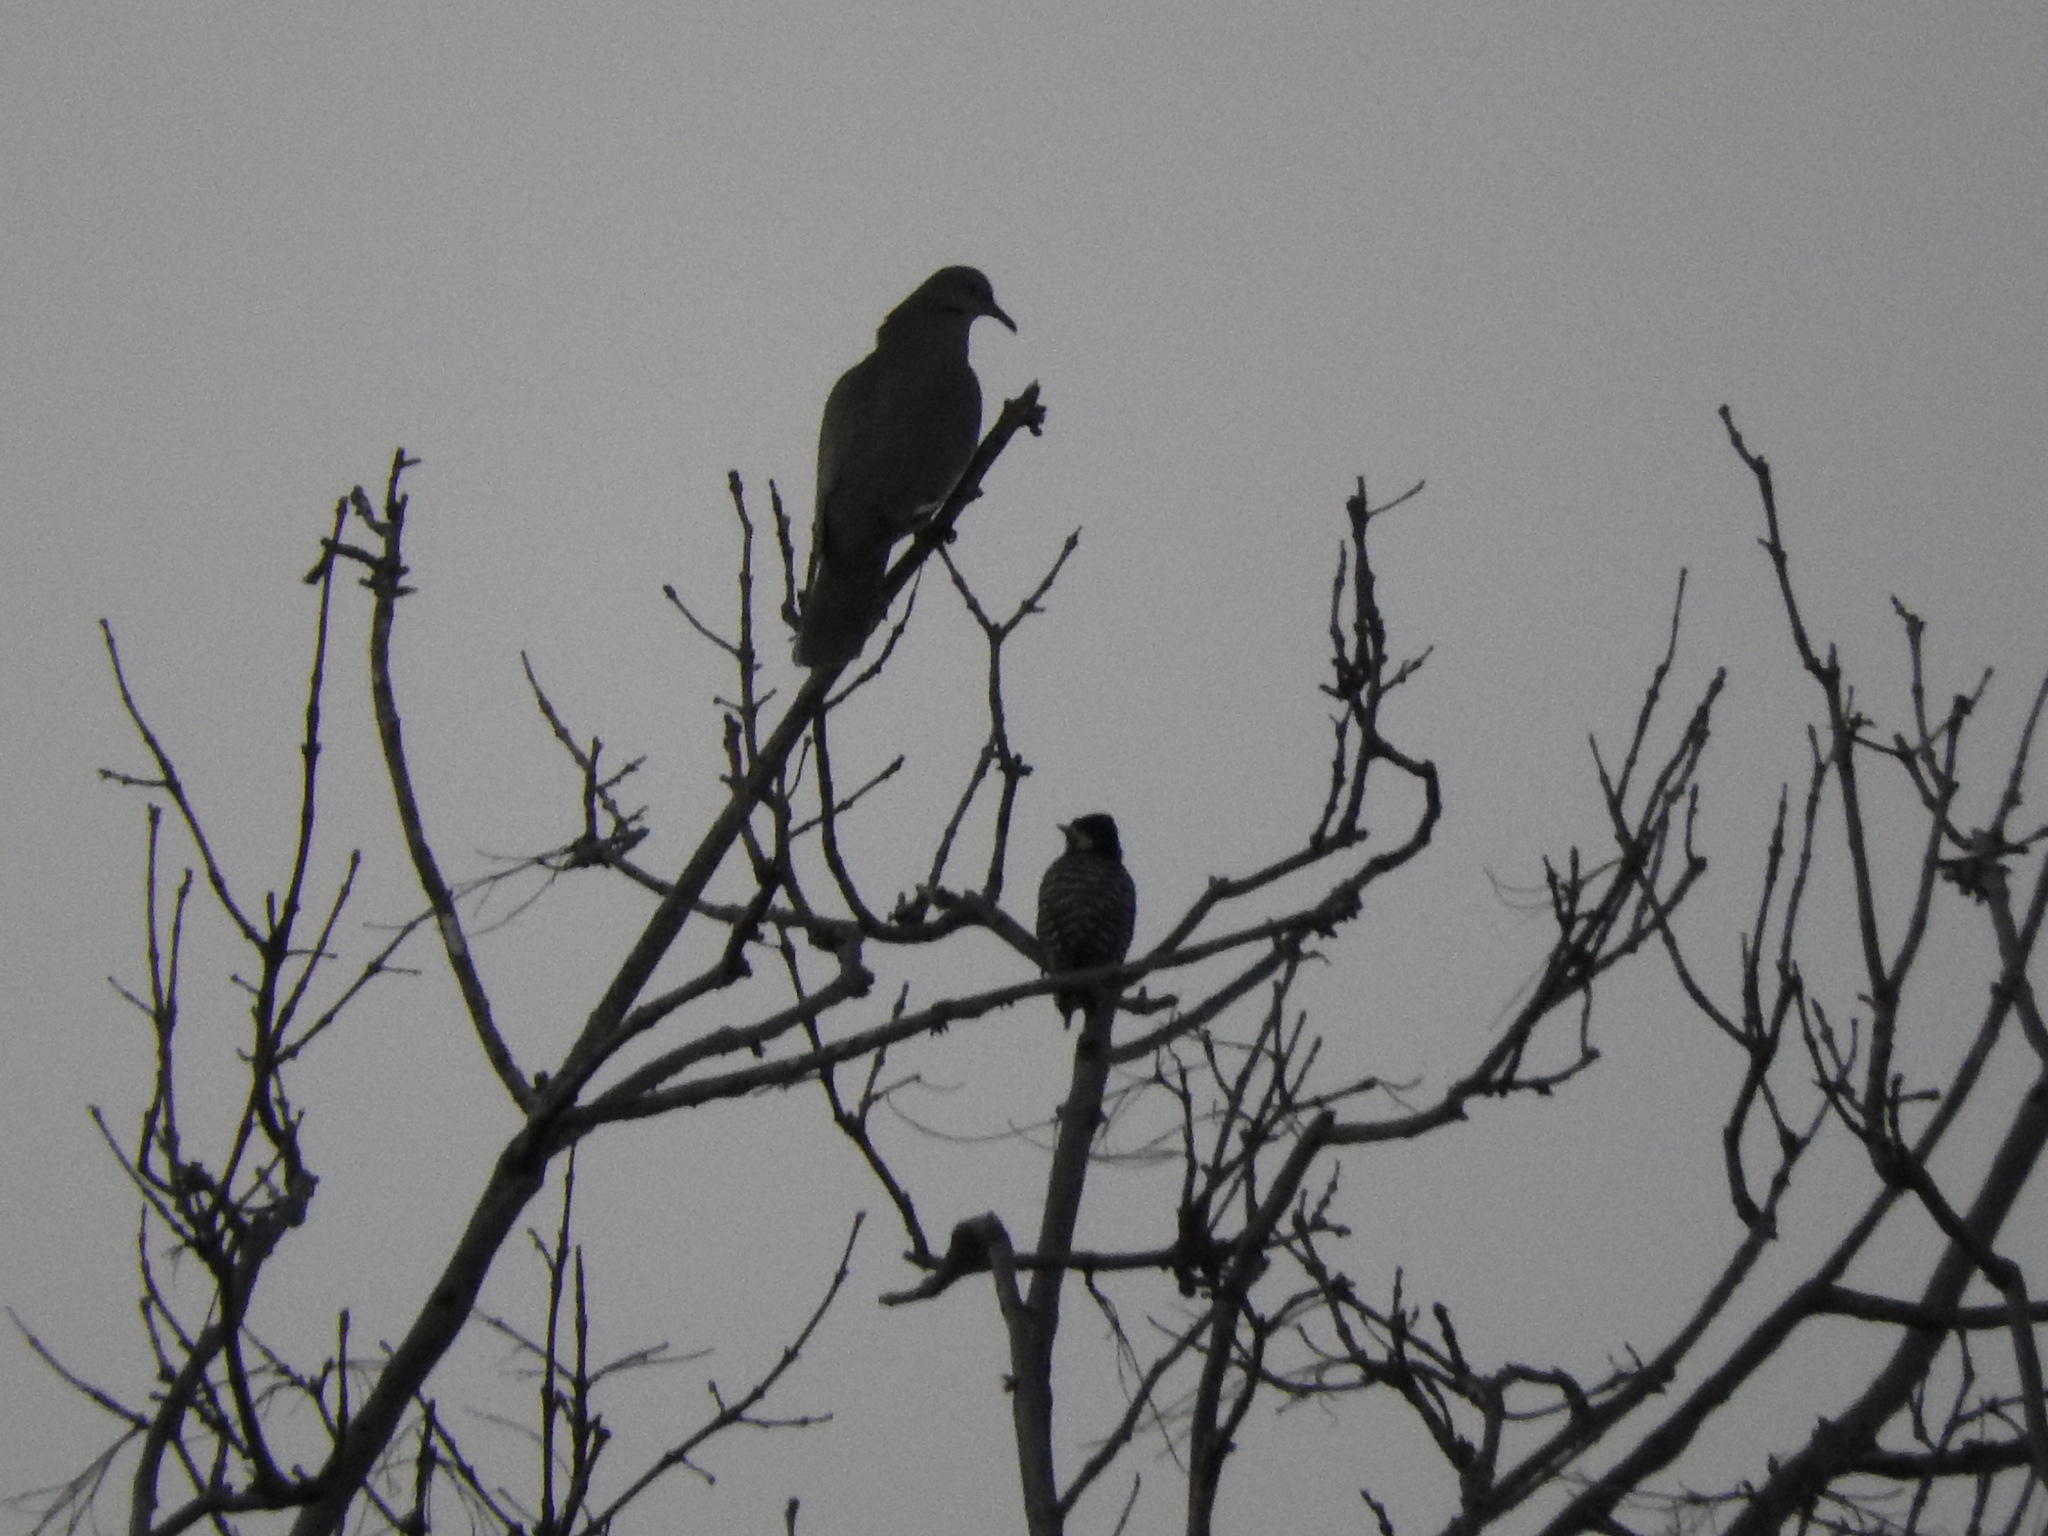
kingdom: Animalia
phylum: Chordata
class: Aves
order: Columbiformes
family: Columbidae
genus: Zenaida
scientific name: Zenaida asiatica
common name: White-winged dove
